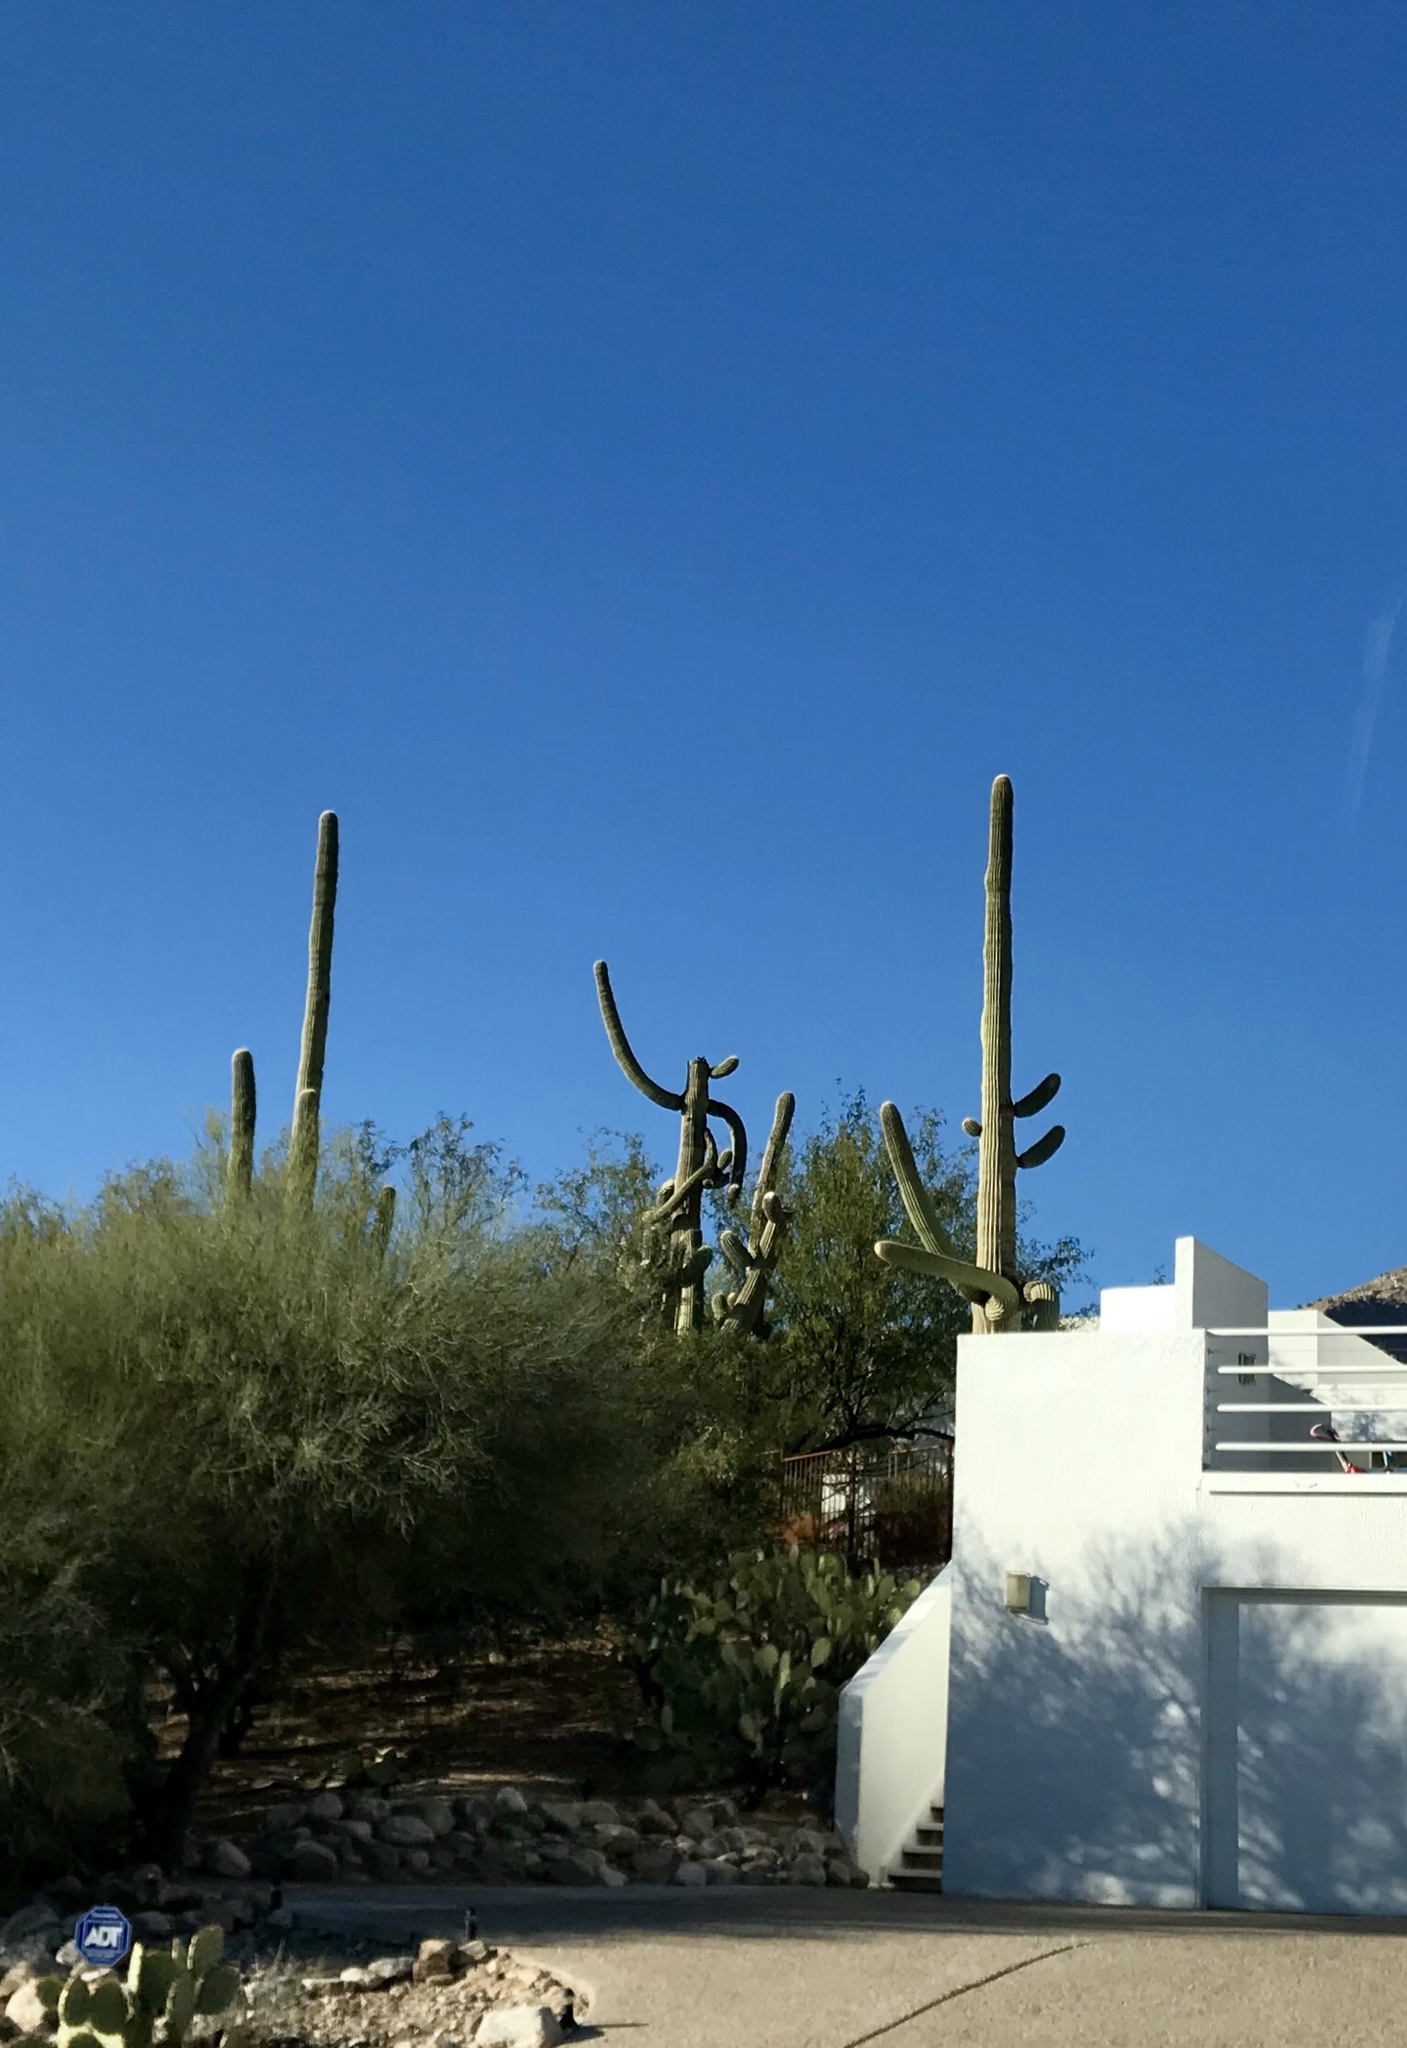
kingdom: Plantae
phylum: Tracheophyta
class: Magnoliopsida
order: Caryophyllales
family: Cactaceae
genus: Carnegiea
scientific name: Carnegiea gigantea
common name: Saguaro
